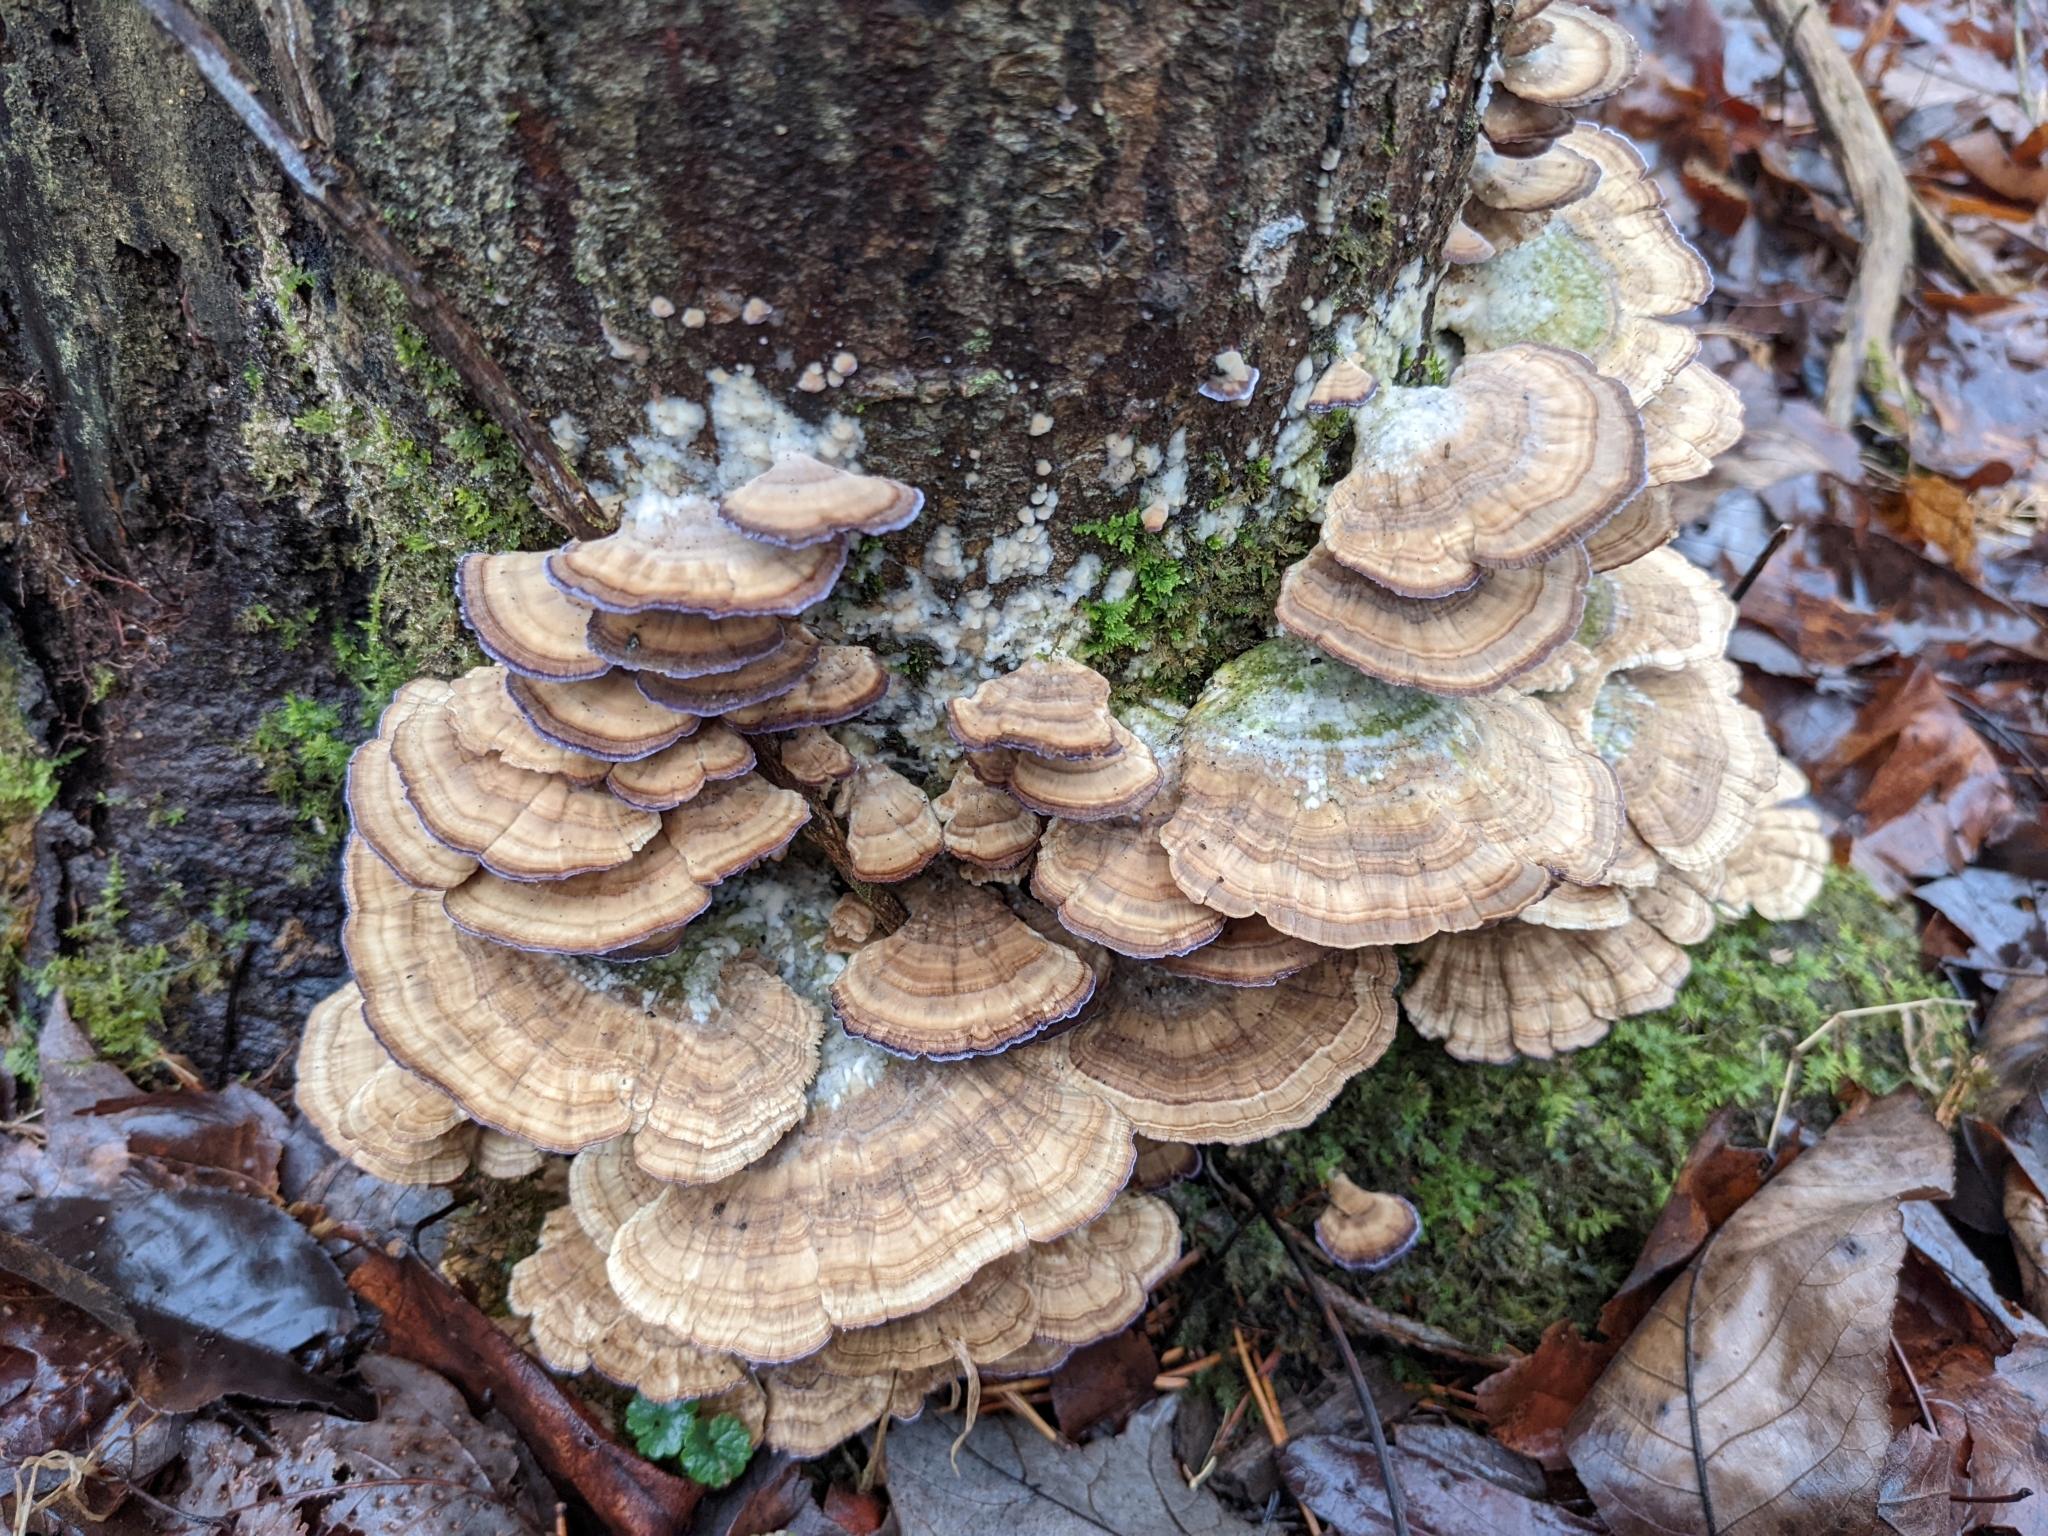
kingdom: Fungi
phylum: Basidiomycota
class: Agaricomycetes
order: Hymenochaetales
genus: Trichaptum
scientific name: Trichaptum biforme
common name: Violet-toothed polypore
